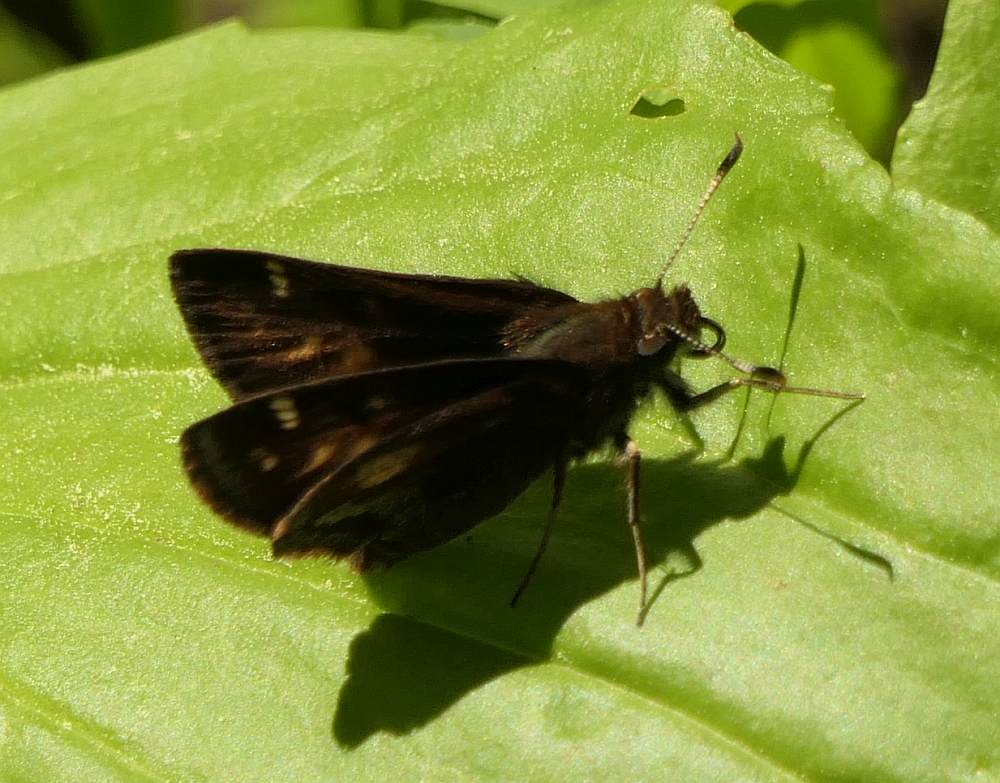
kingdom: Animalia
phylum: Arthropoda
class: Insecta
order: Lepidoptera
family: Hesperiidae
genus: Lon
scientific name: Lon hobomok
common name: Hobomok skipper
